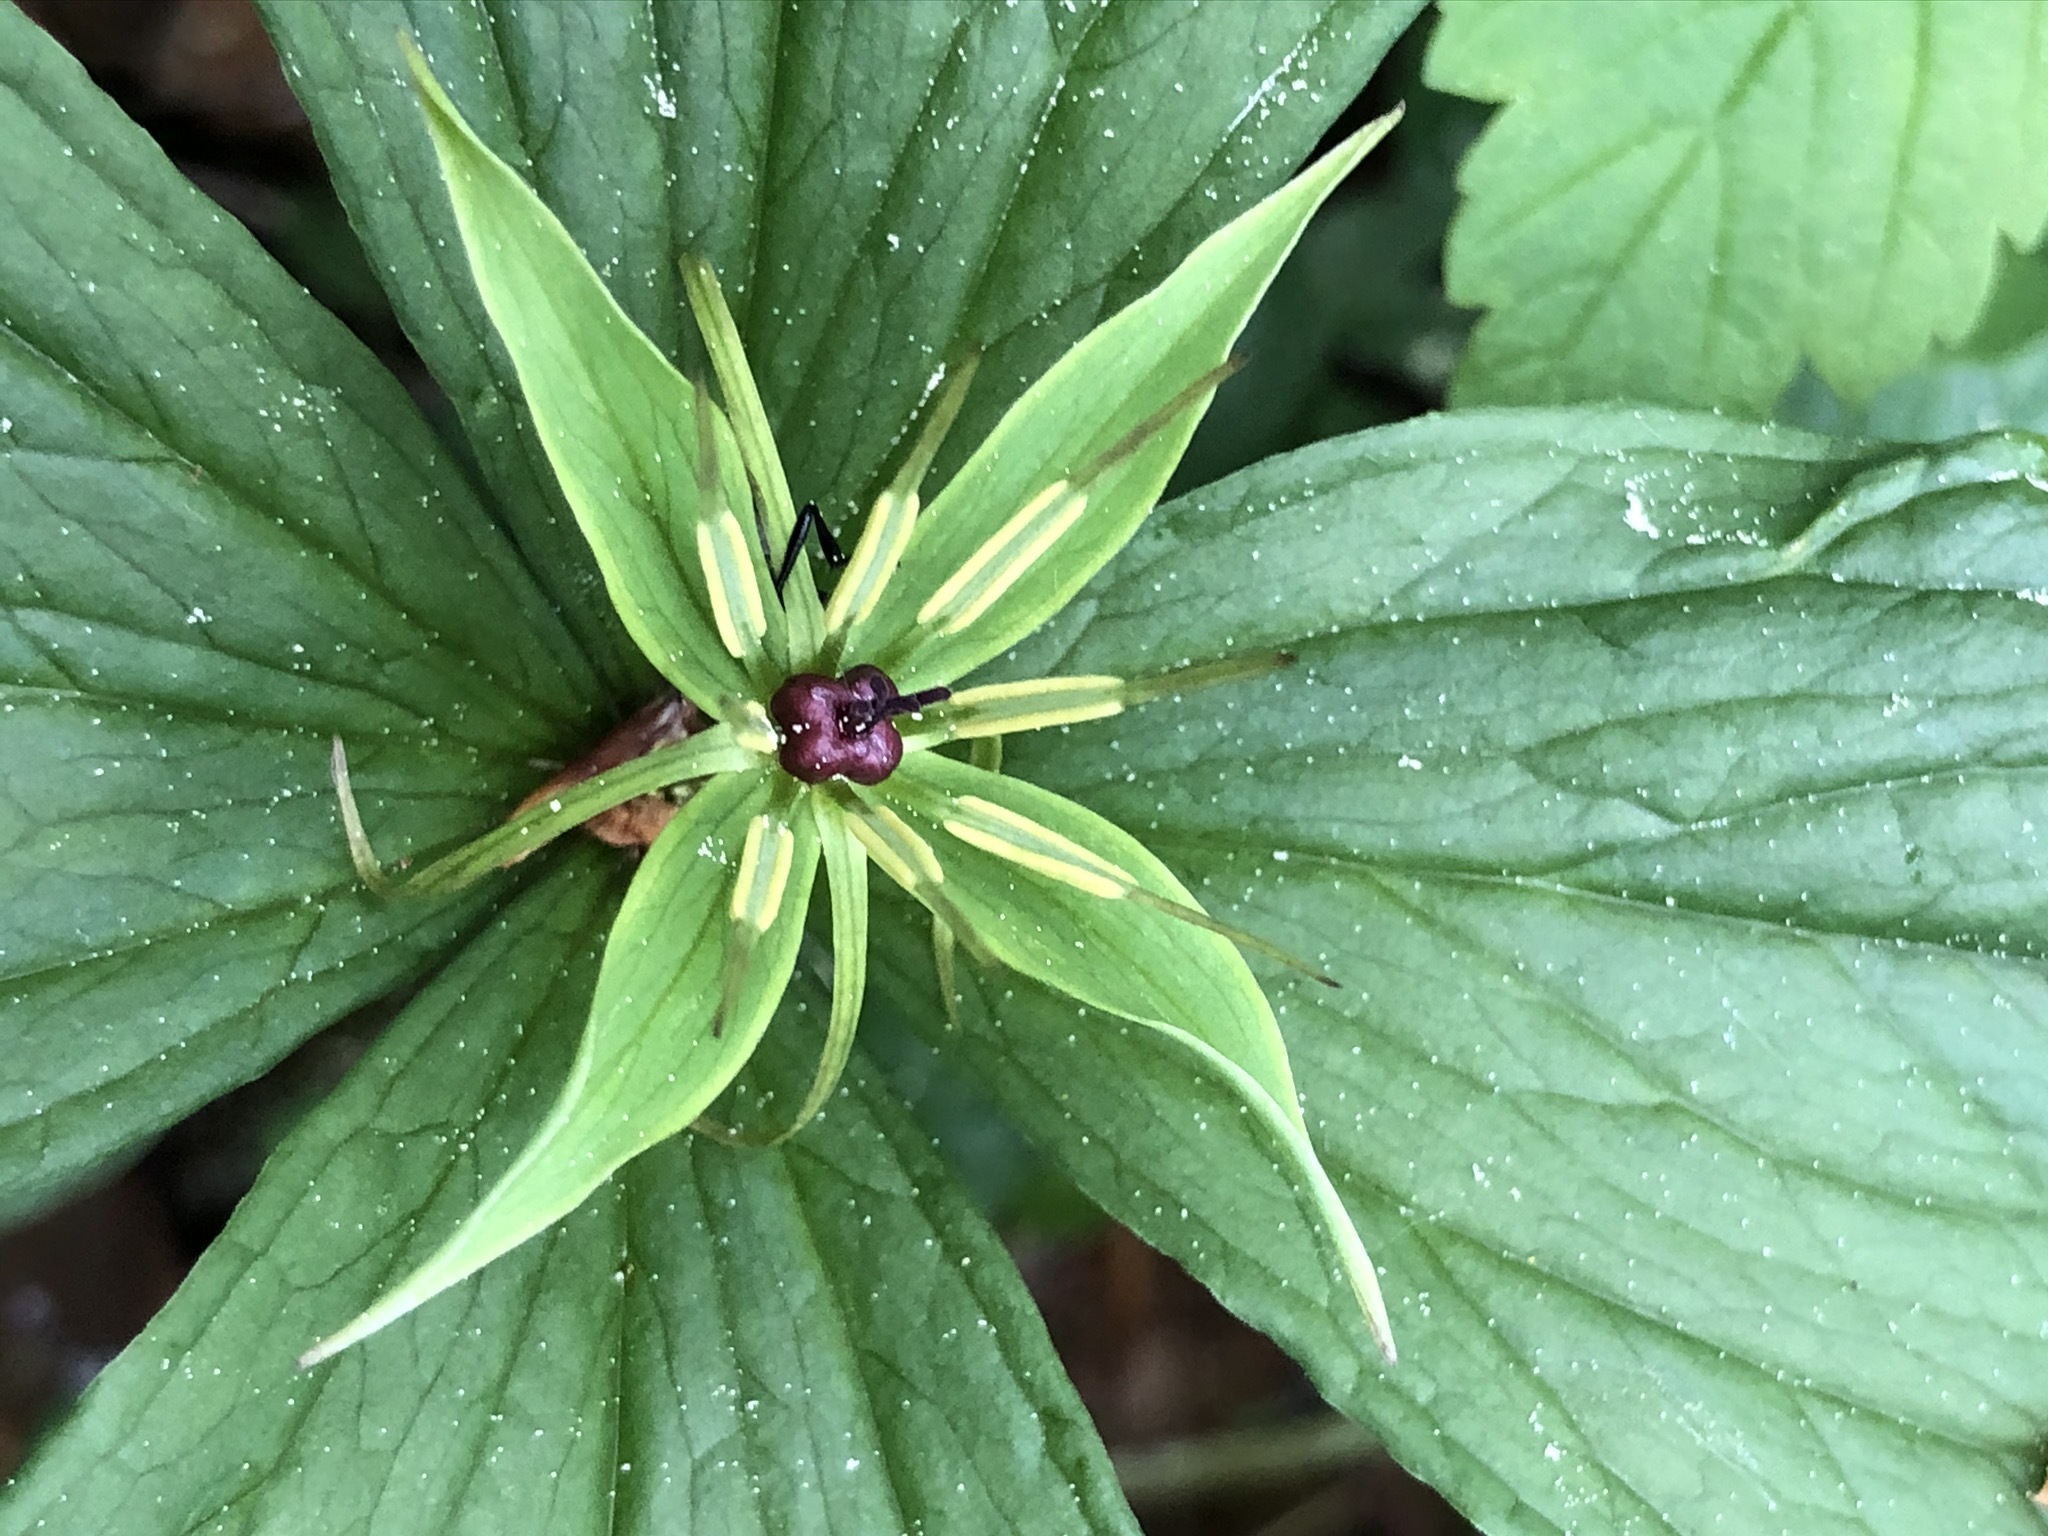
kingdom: Plantae
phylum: Tracheophyta
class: Liliopsida
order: Liliales
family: Melanthiaceae
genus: Paris
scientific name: Paris quadrifolia
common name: Herb-paris
